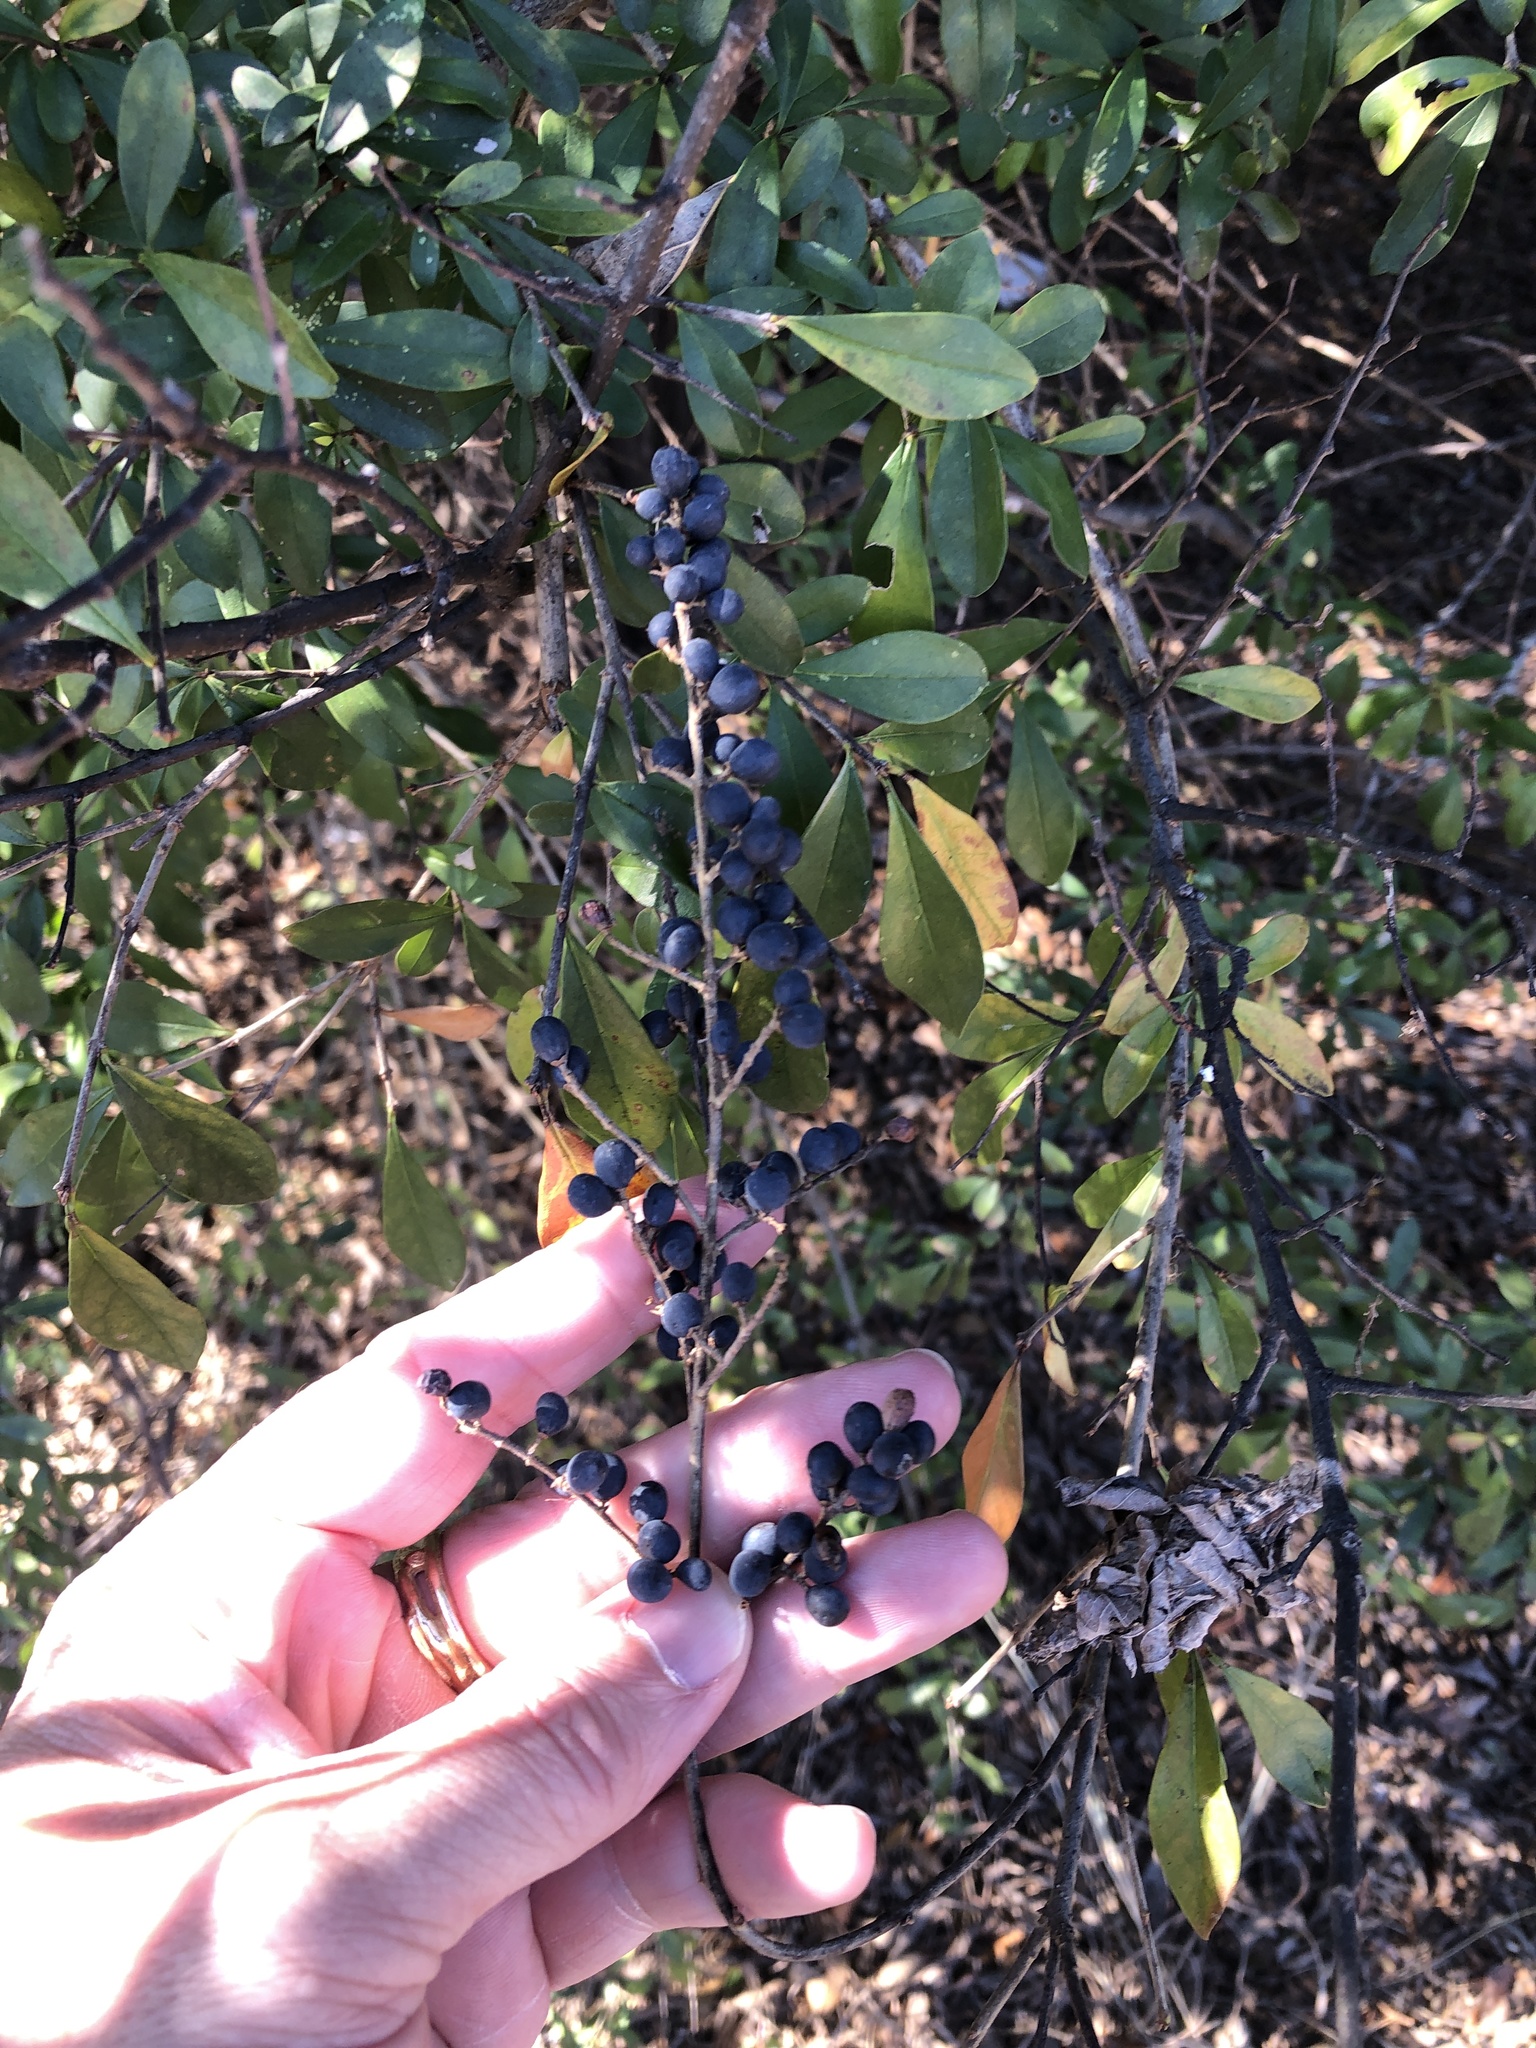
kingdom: Plantae
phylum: Tracheophyta
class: Magnoliopsida
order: Lamiales
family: Oleaceae
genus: Ligustrum
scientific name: Ligustrum quihoui
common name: Waxyleaf privet
